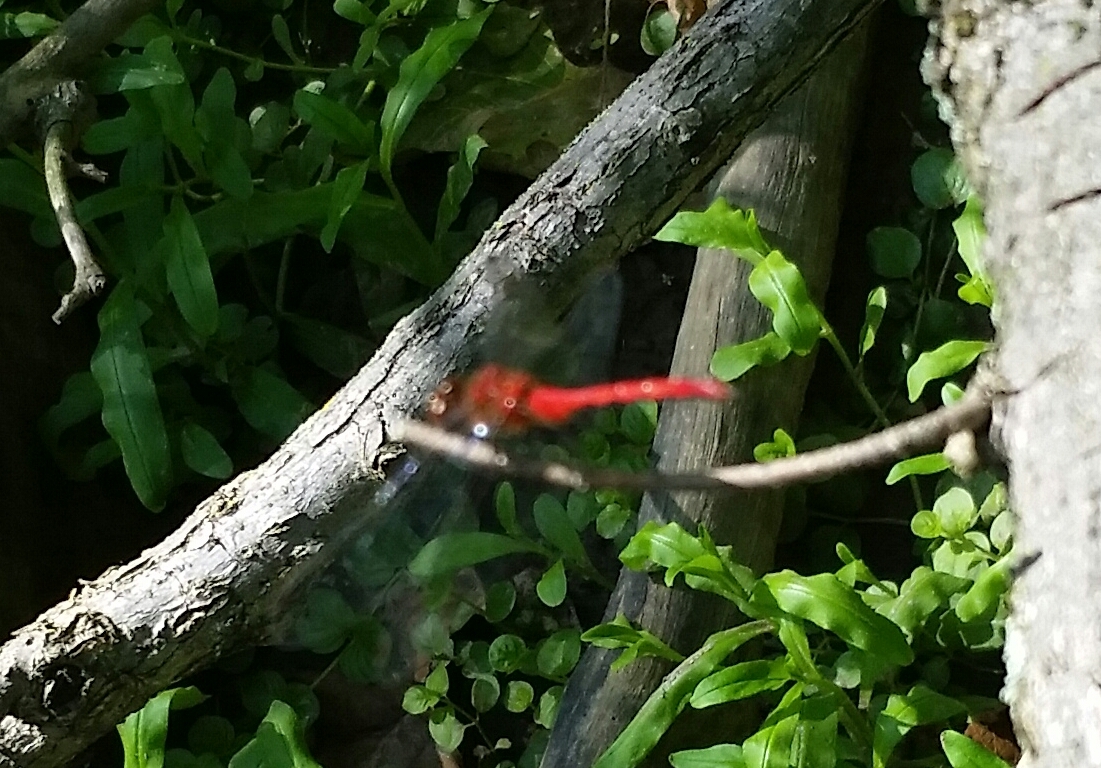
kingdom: Animalia
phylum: Arthropoda
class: Insecta
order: Odonata
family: Libellulidae
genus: Sympetrum
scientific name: Sympetrum
